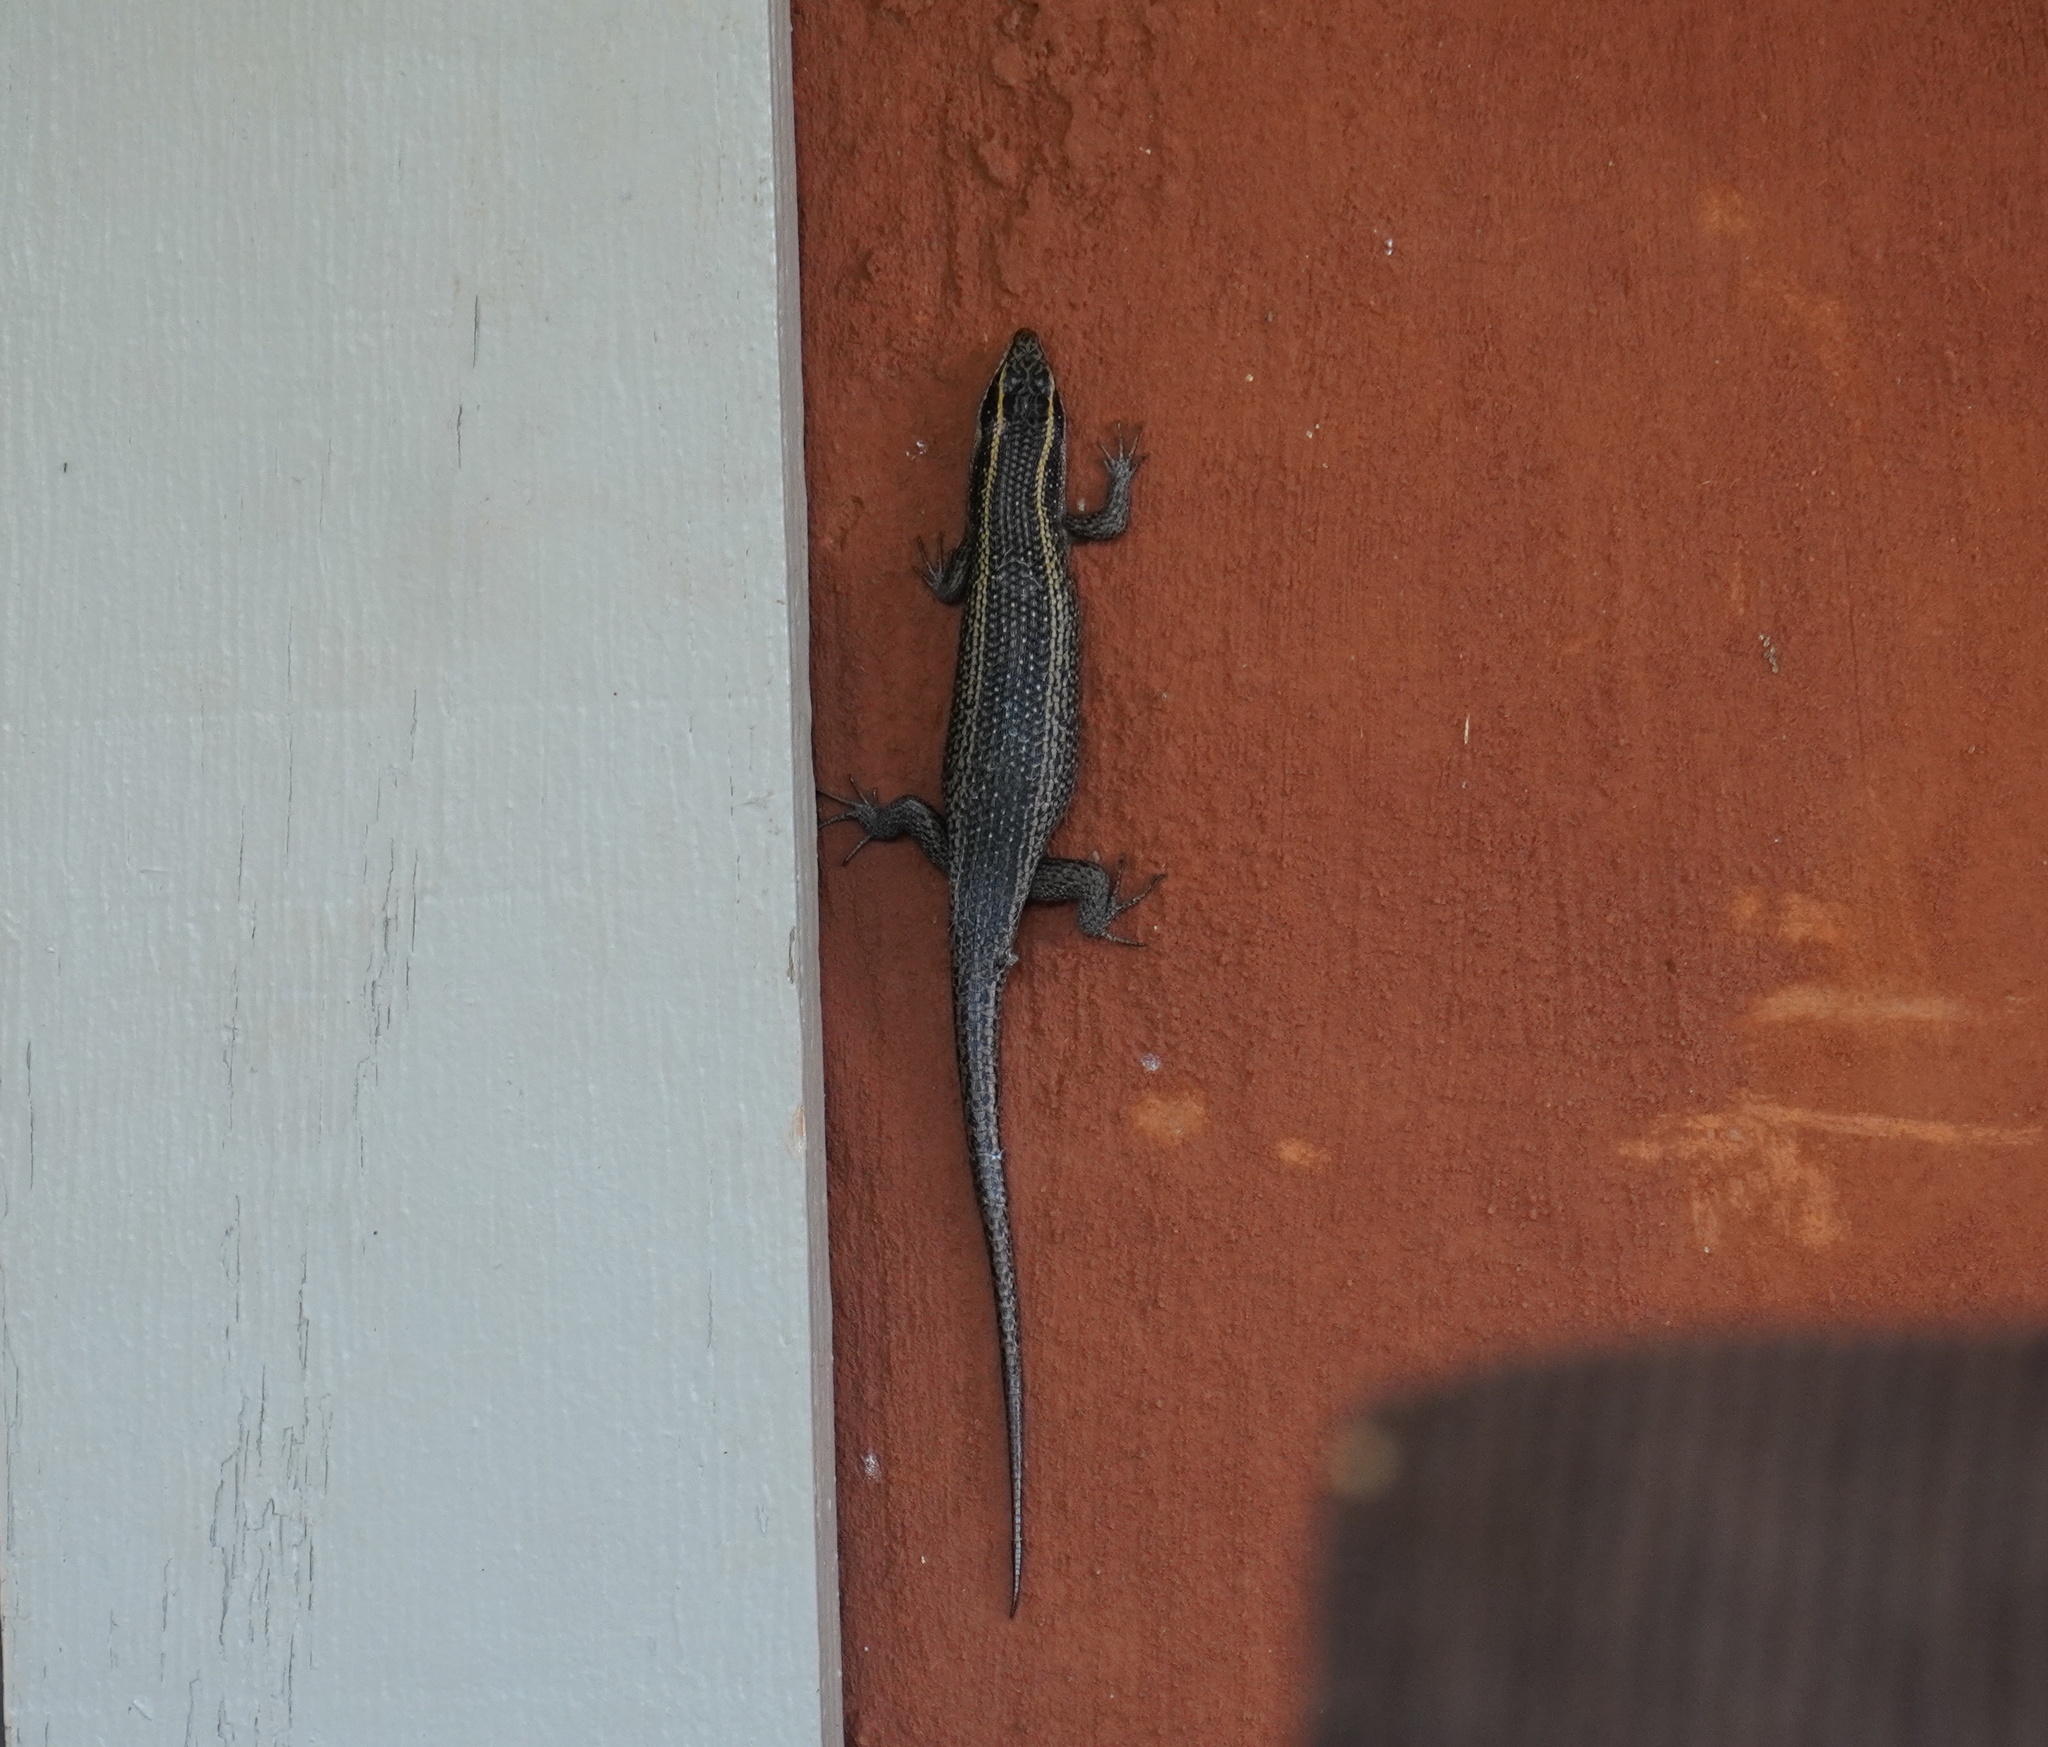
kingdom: Animalia
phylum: Chordata
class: Squamata
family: Scincidae
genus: Trachylepis
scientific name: Trachylepis punctatissima
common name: Montane speckled skink
